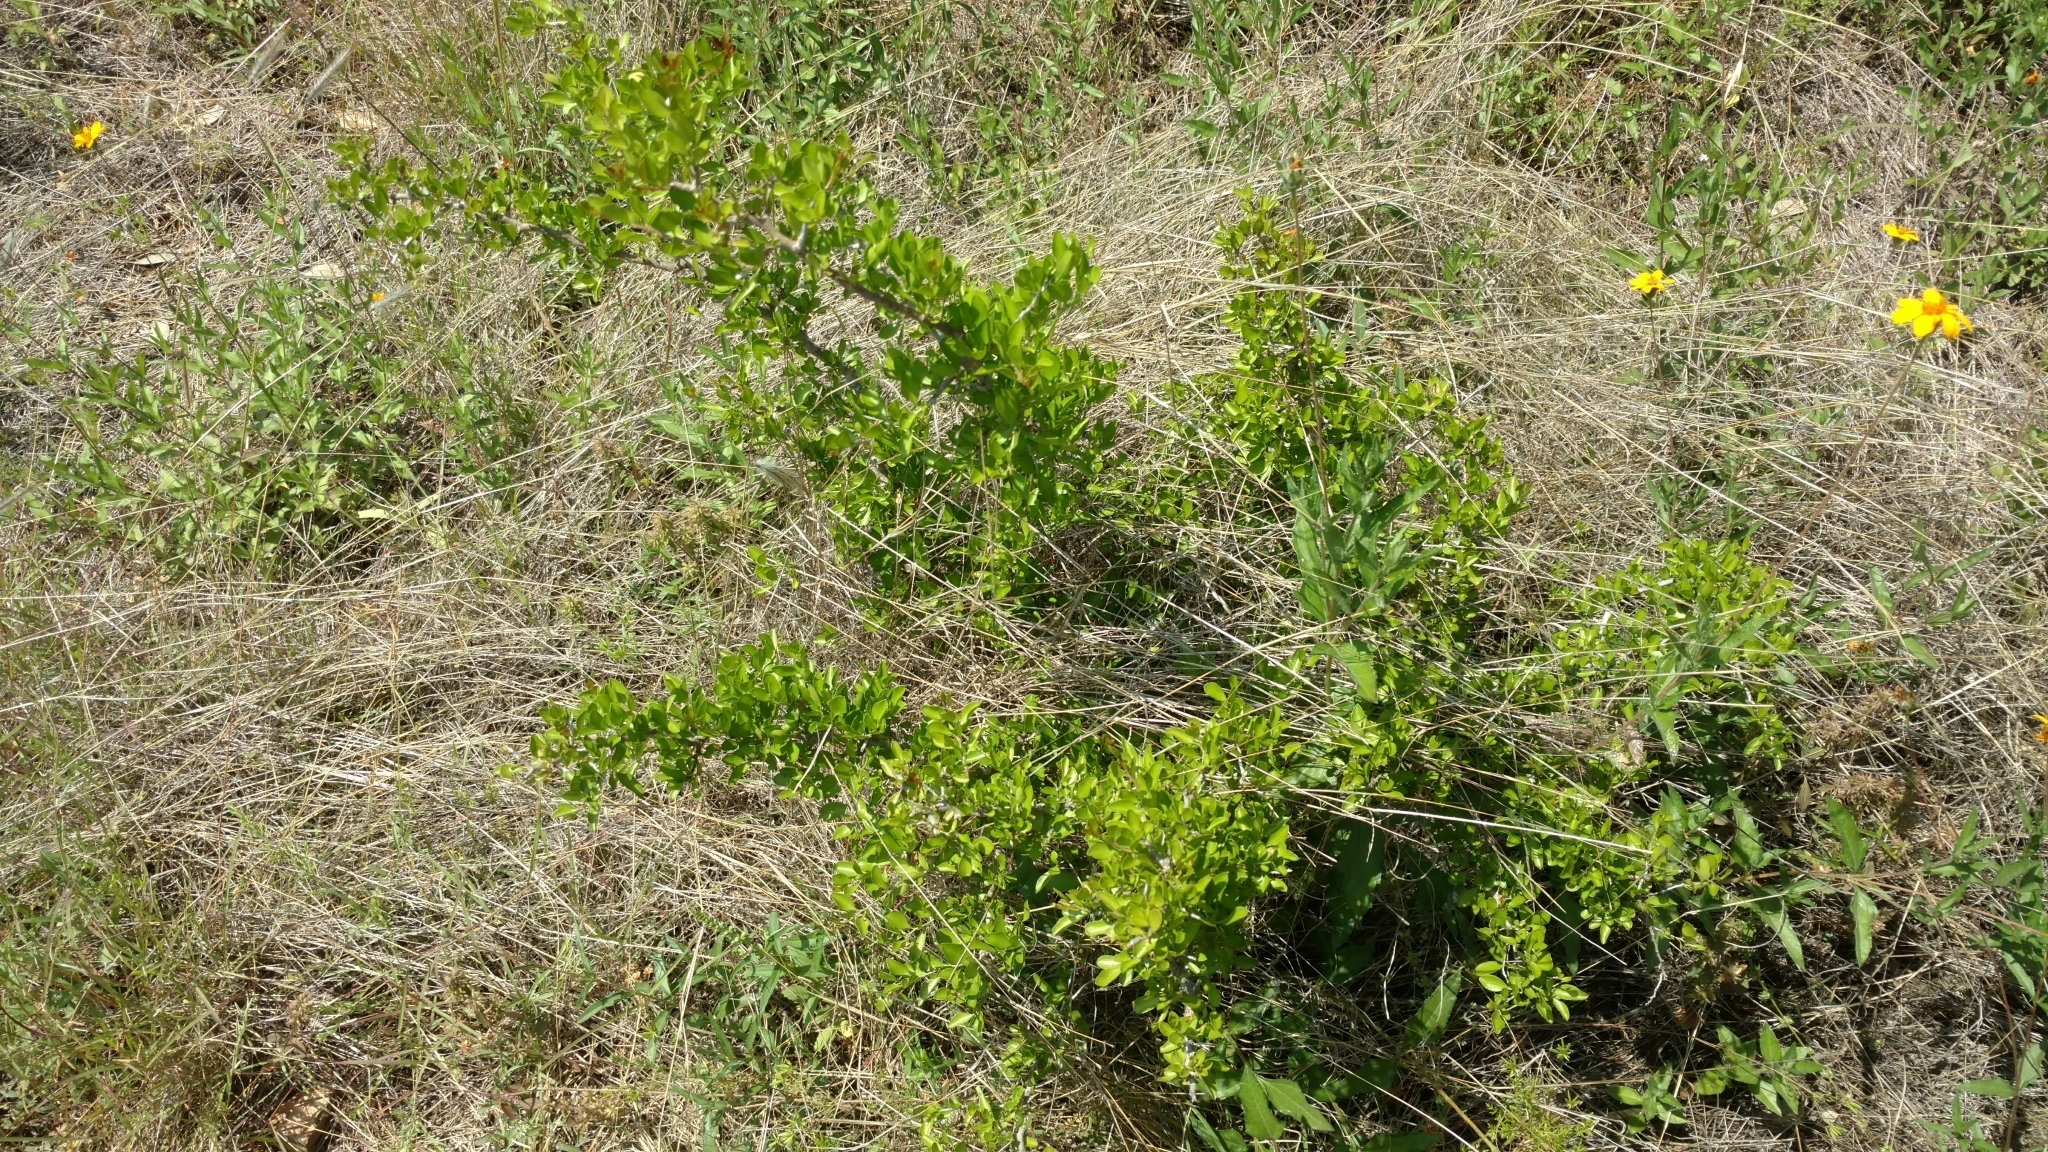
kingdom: Plantae
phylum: Tracheophyta
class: Magnoliopsida
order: Rosales
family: Rhamnaceae
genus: Condalia
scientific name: Condalia hookeri
